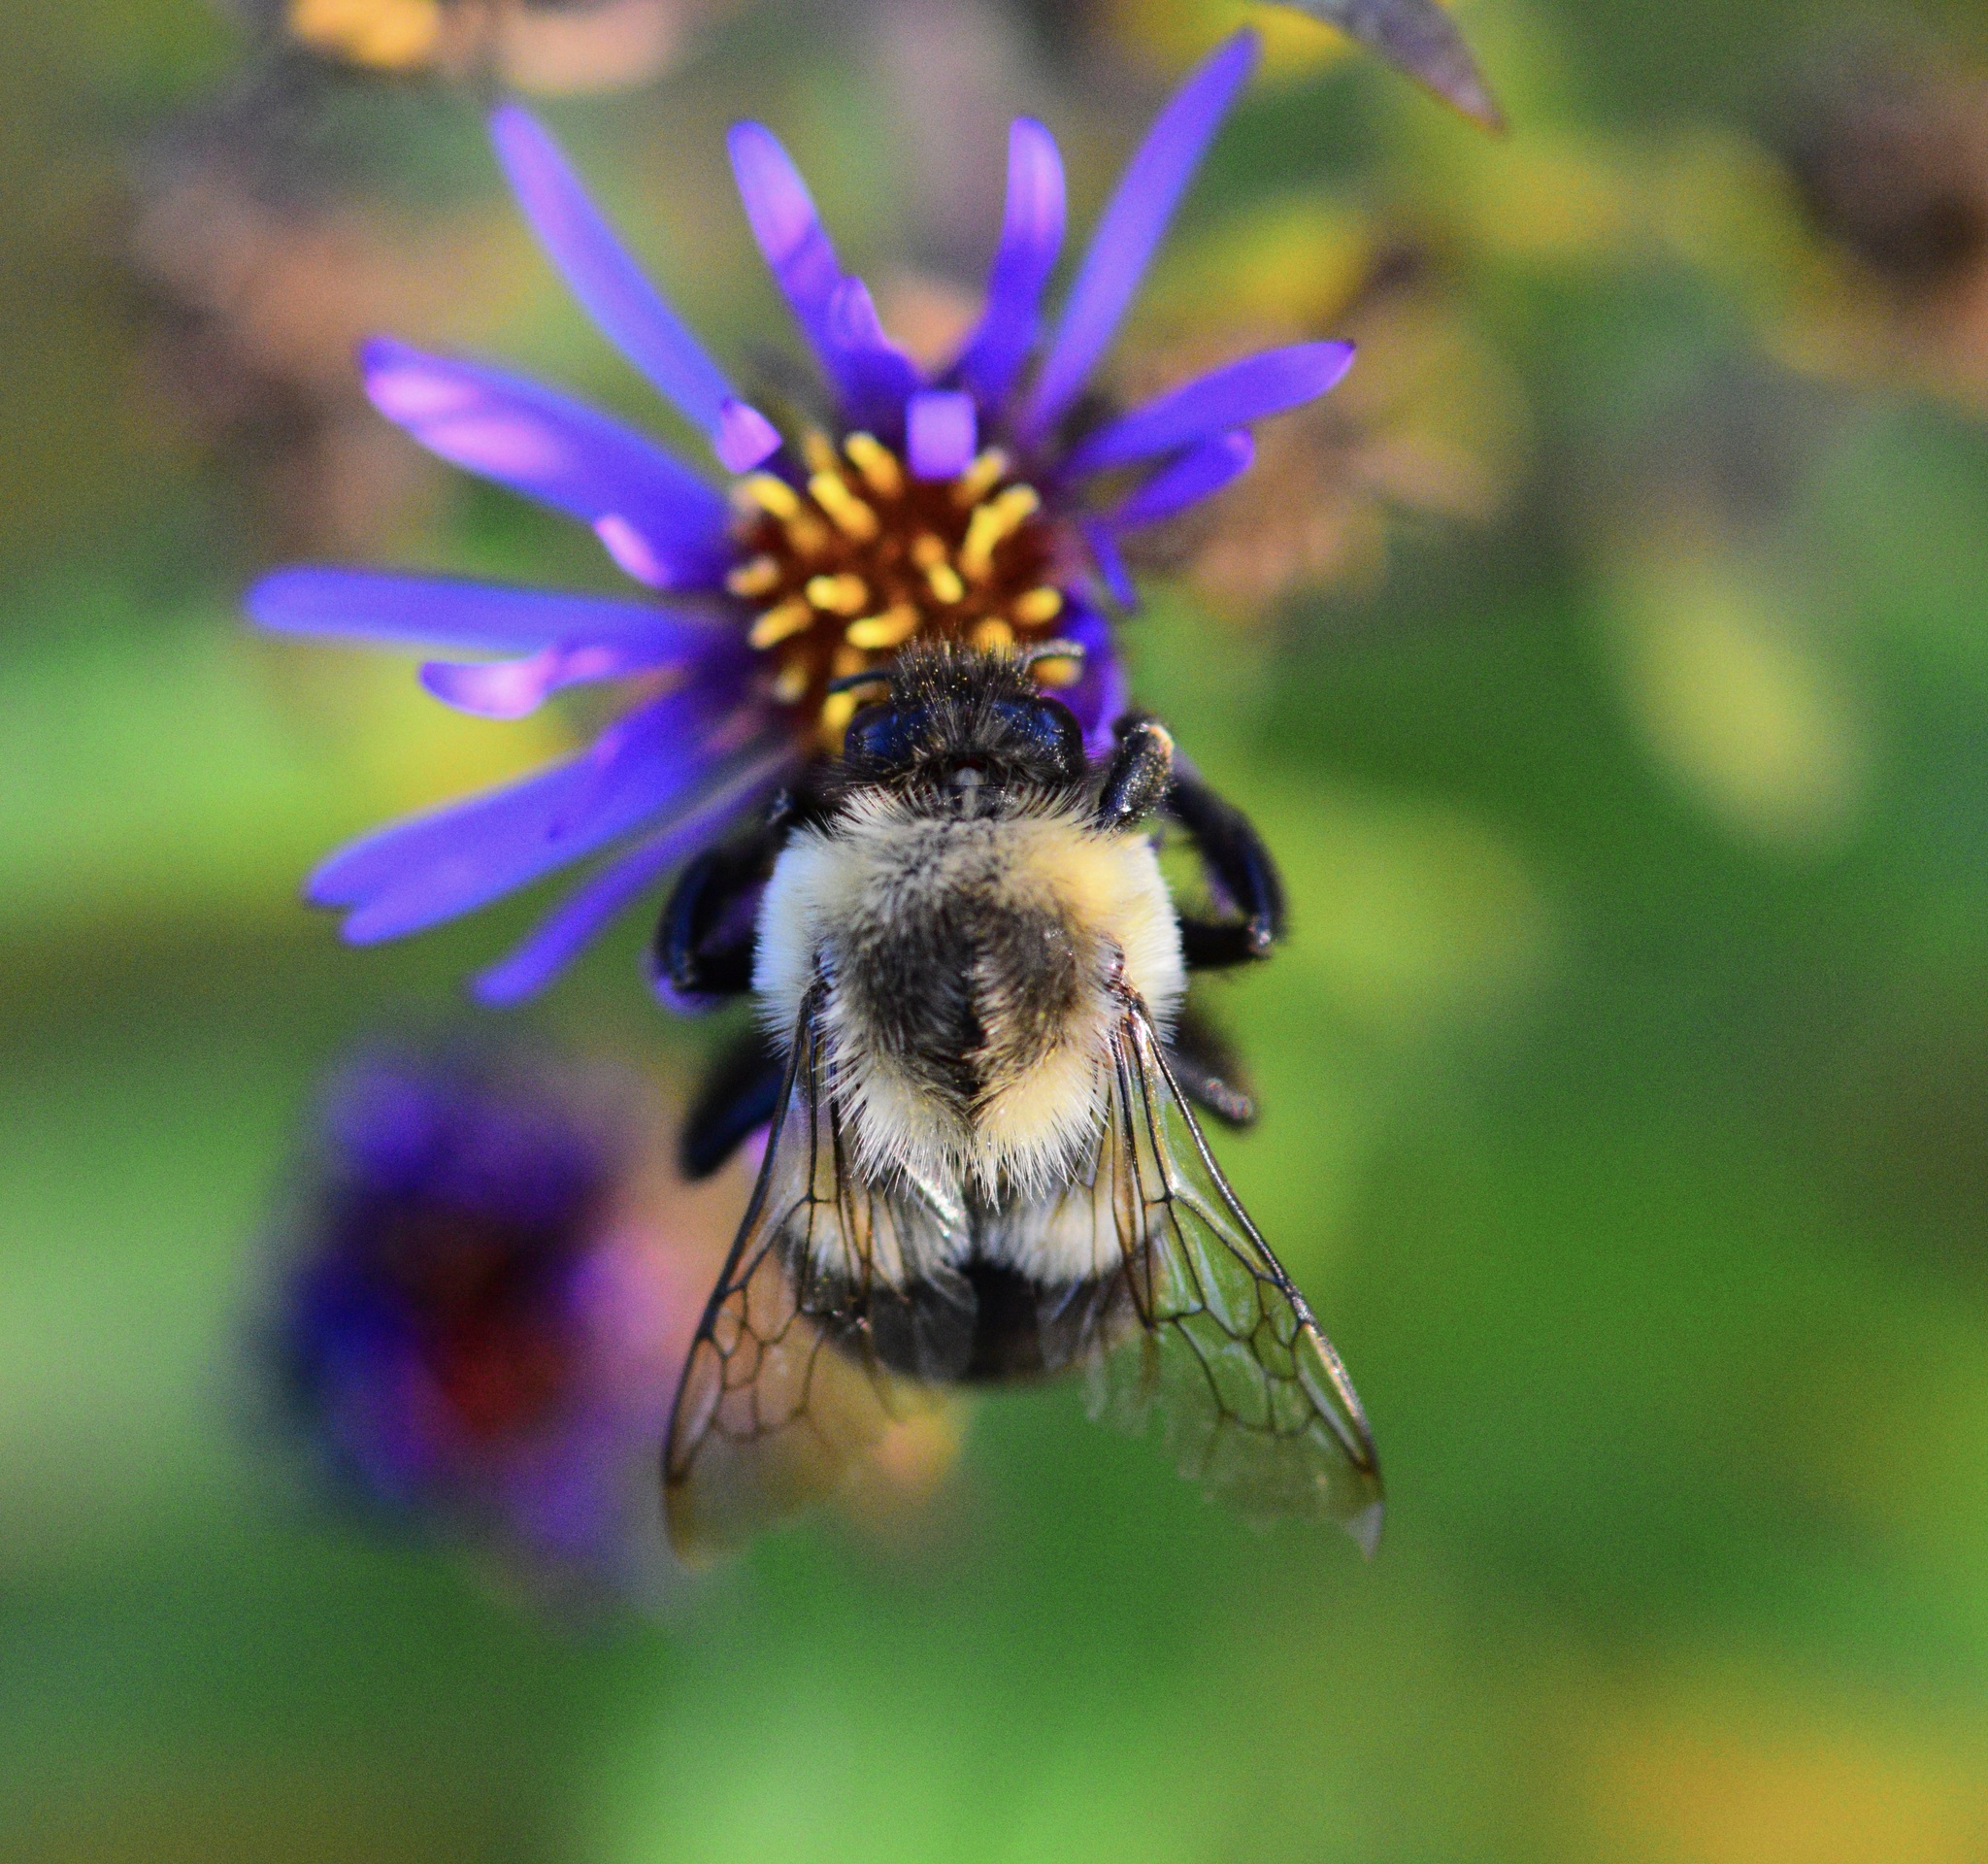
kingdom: Animalia
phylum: Arthropoda
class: Insecta
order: Hymenoptera
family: Apidae
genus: Bombus
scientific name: Bombus impatiens
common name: Common eastern bumble bee
